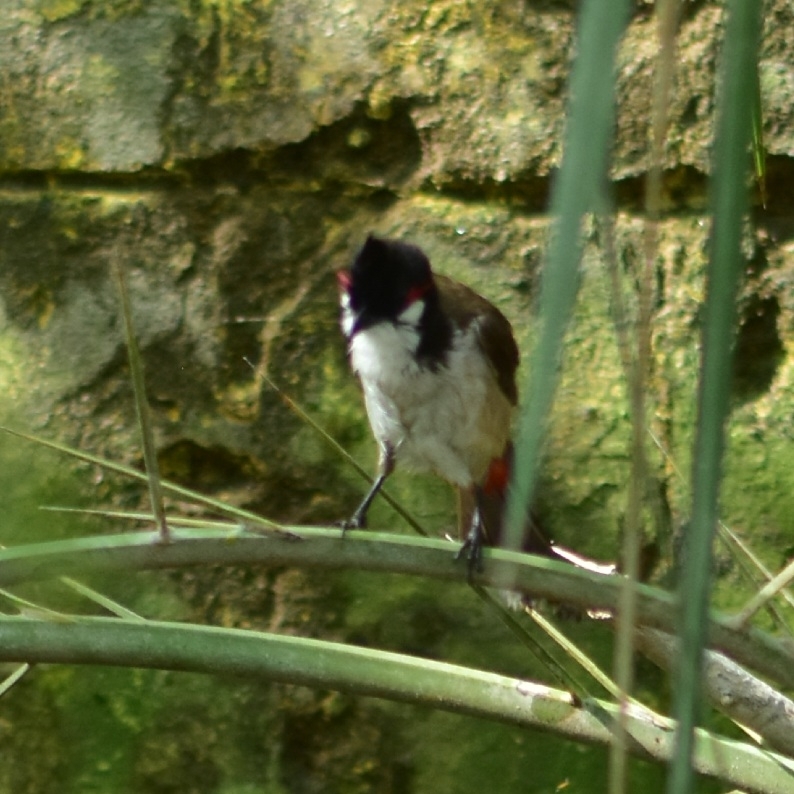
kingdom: Animalia
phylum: Chordata
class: Aves
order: Passeriformes
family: Pycnonotidae
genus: Pycnonotus
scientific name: Pycnonotus jocosus
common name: Red-whiskered bulbul
